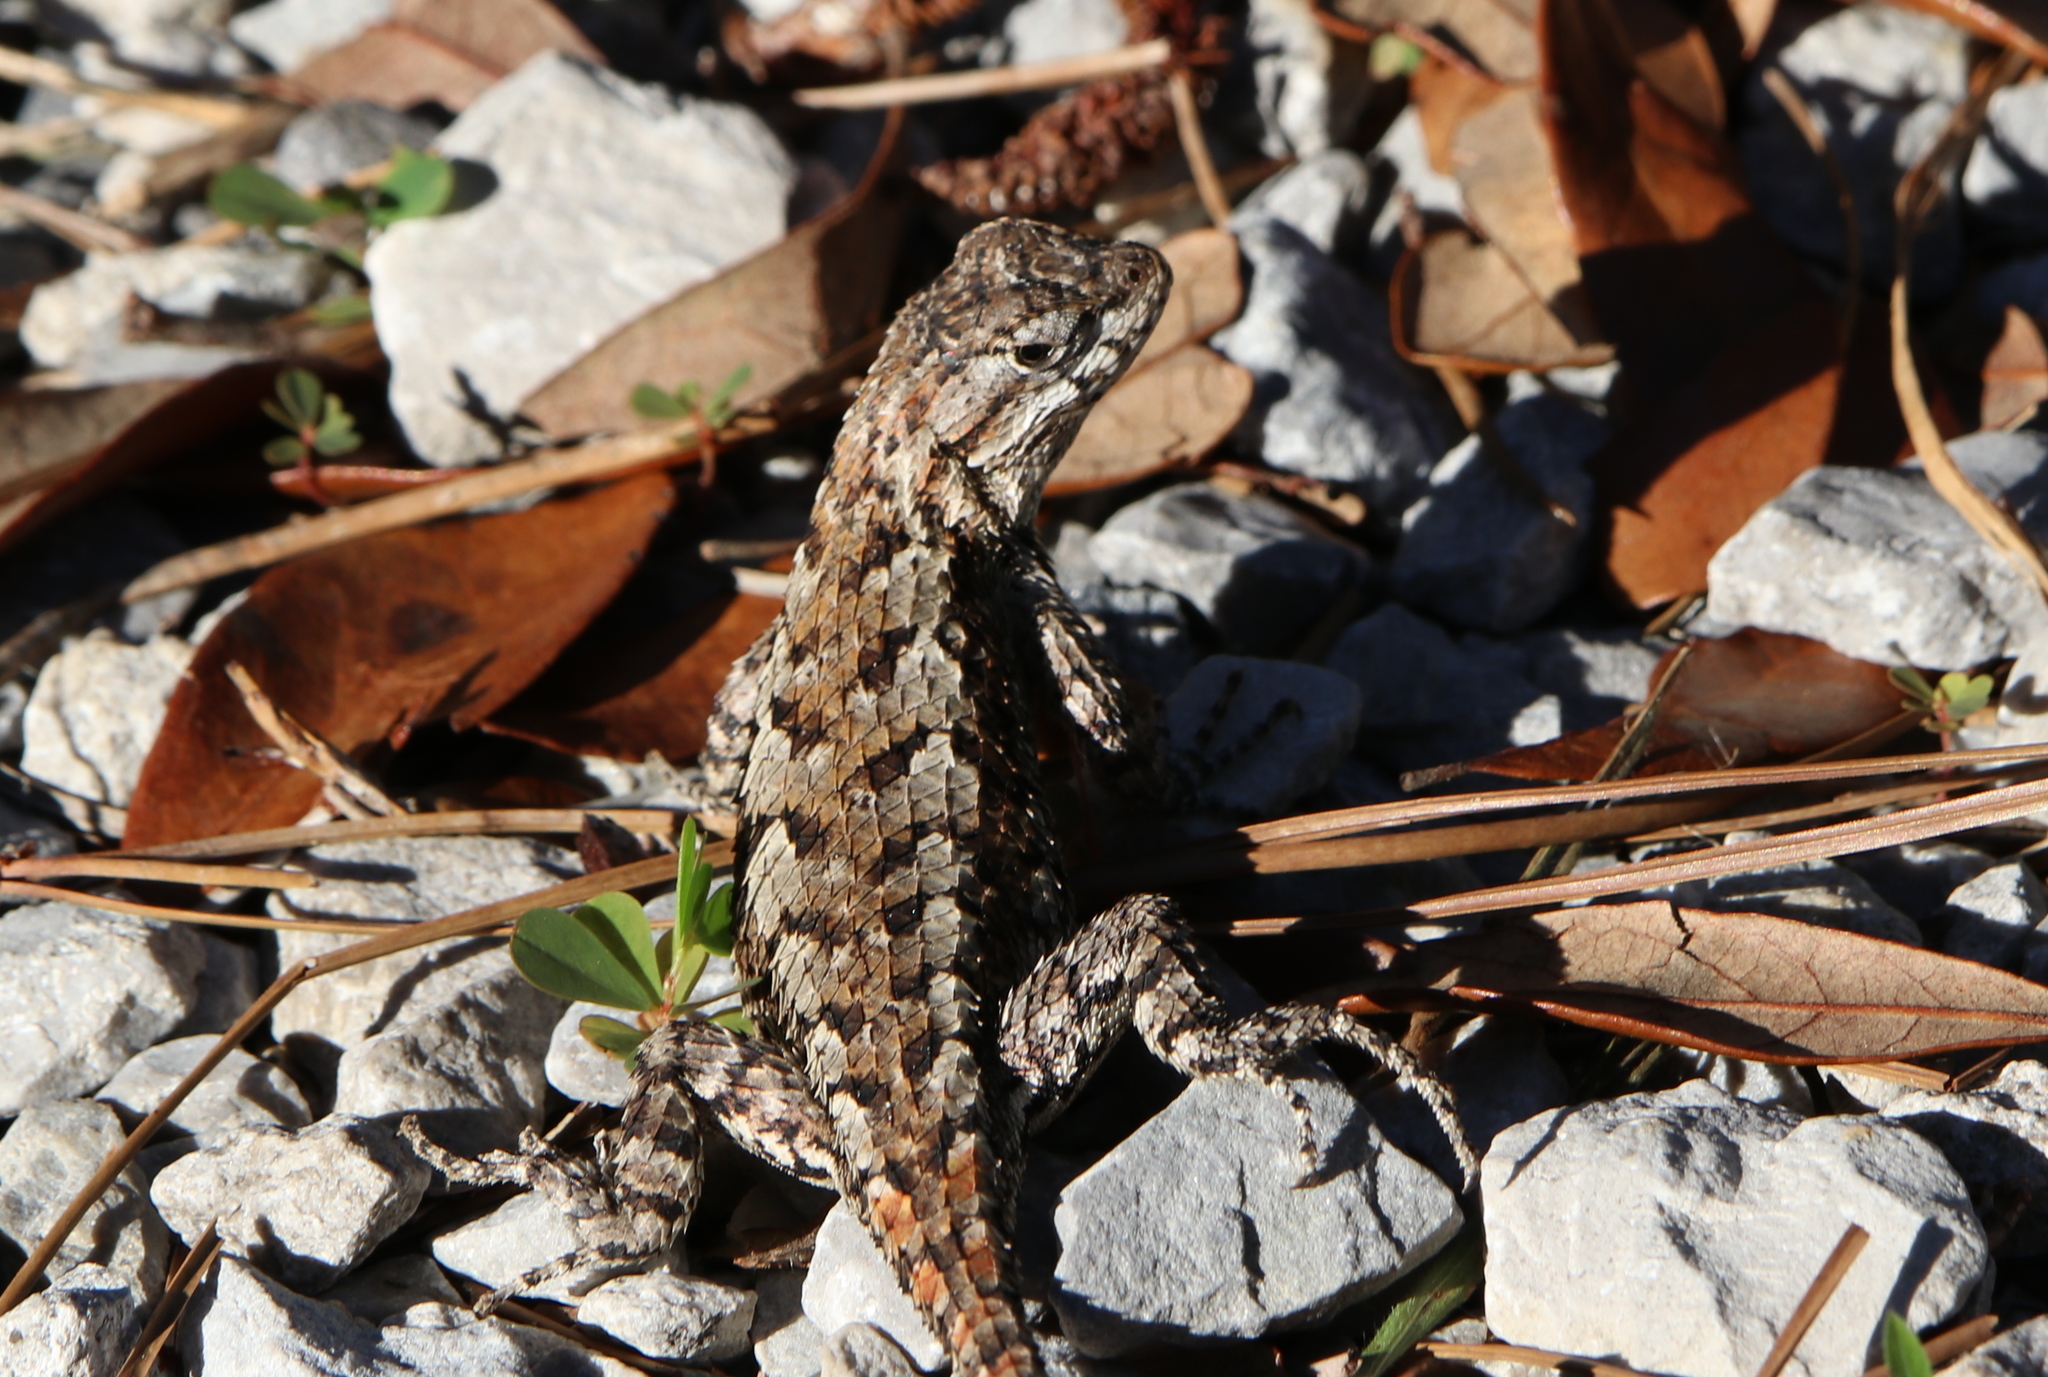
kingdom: Animalia
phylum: Chordata
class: Squamata
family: Phrynosomatidae
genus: Sceloporus
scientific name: Sceloporus undulatus
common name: Eastern fence lizard
